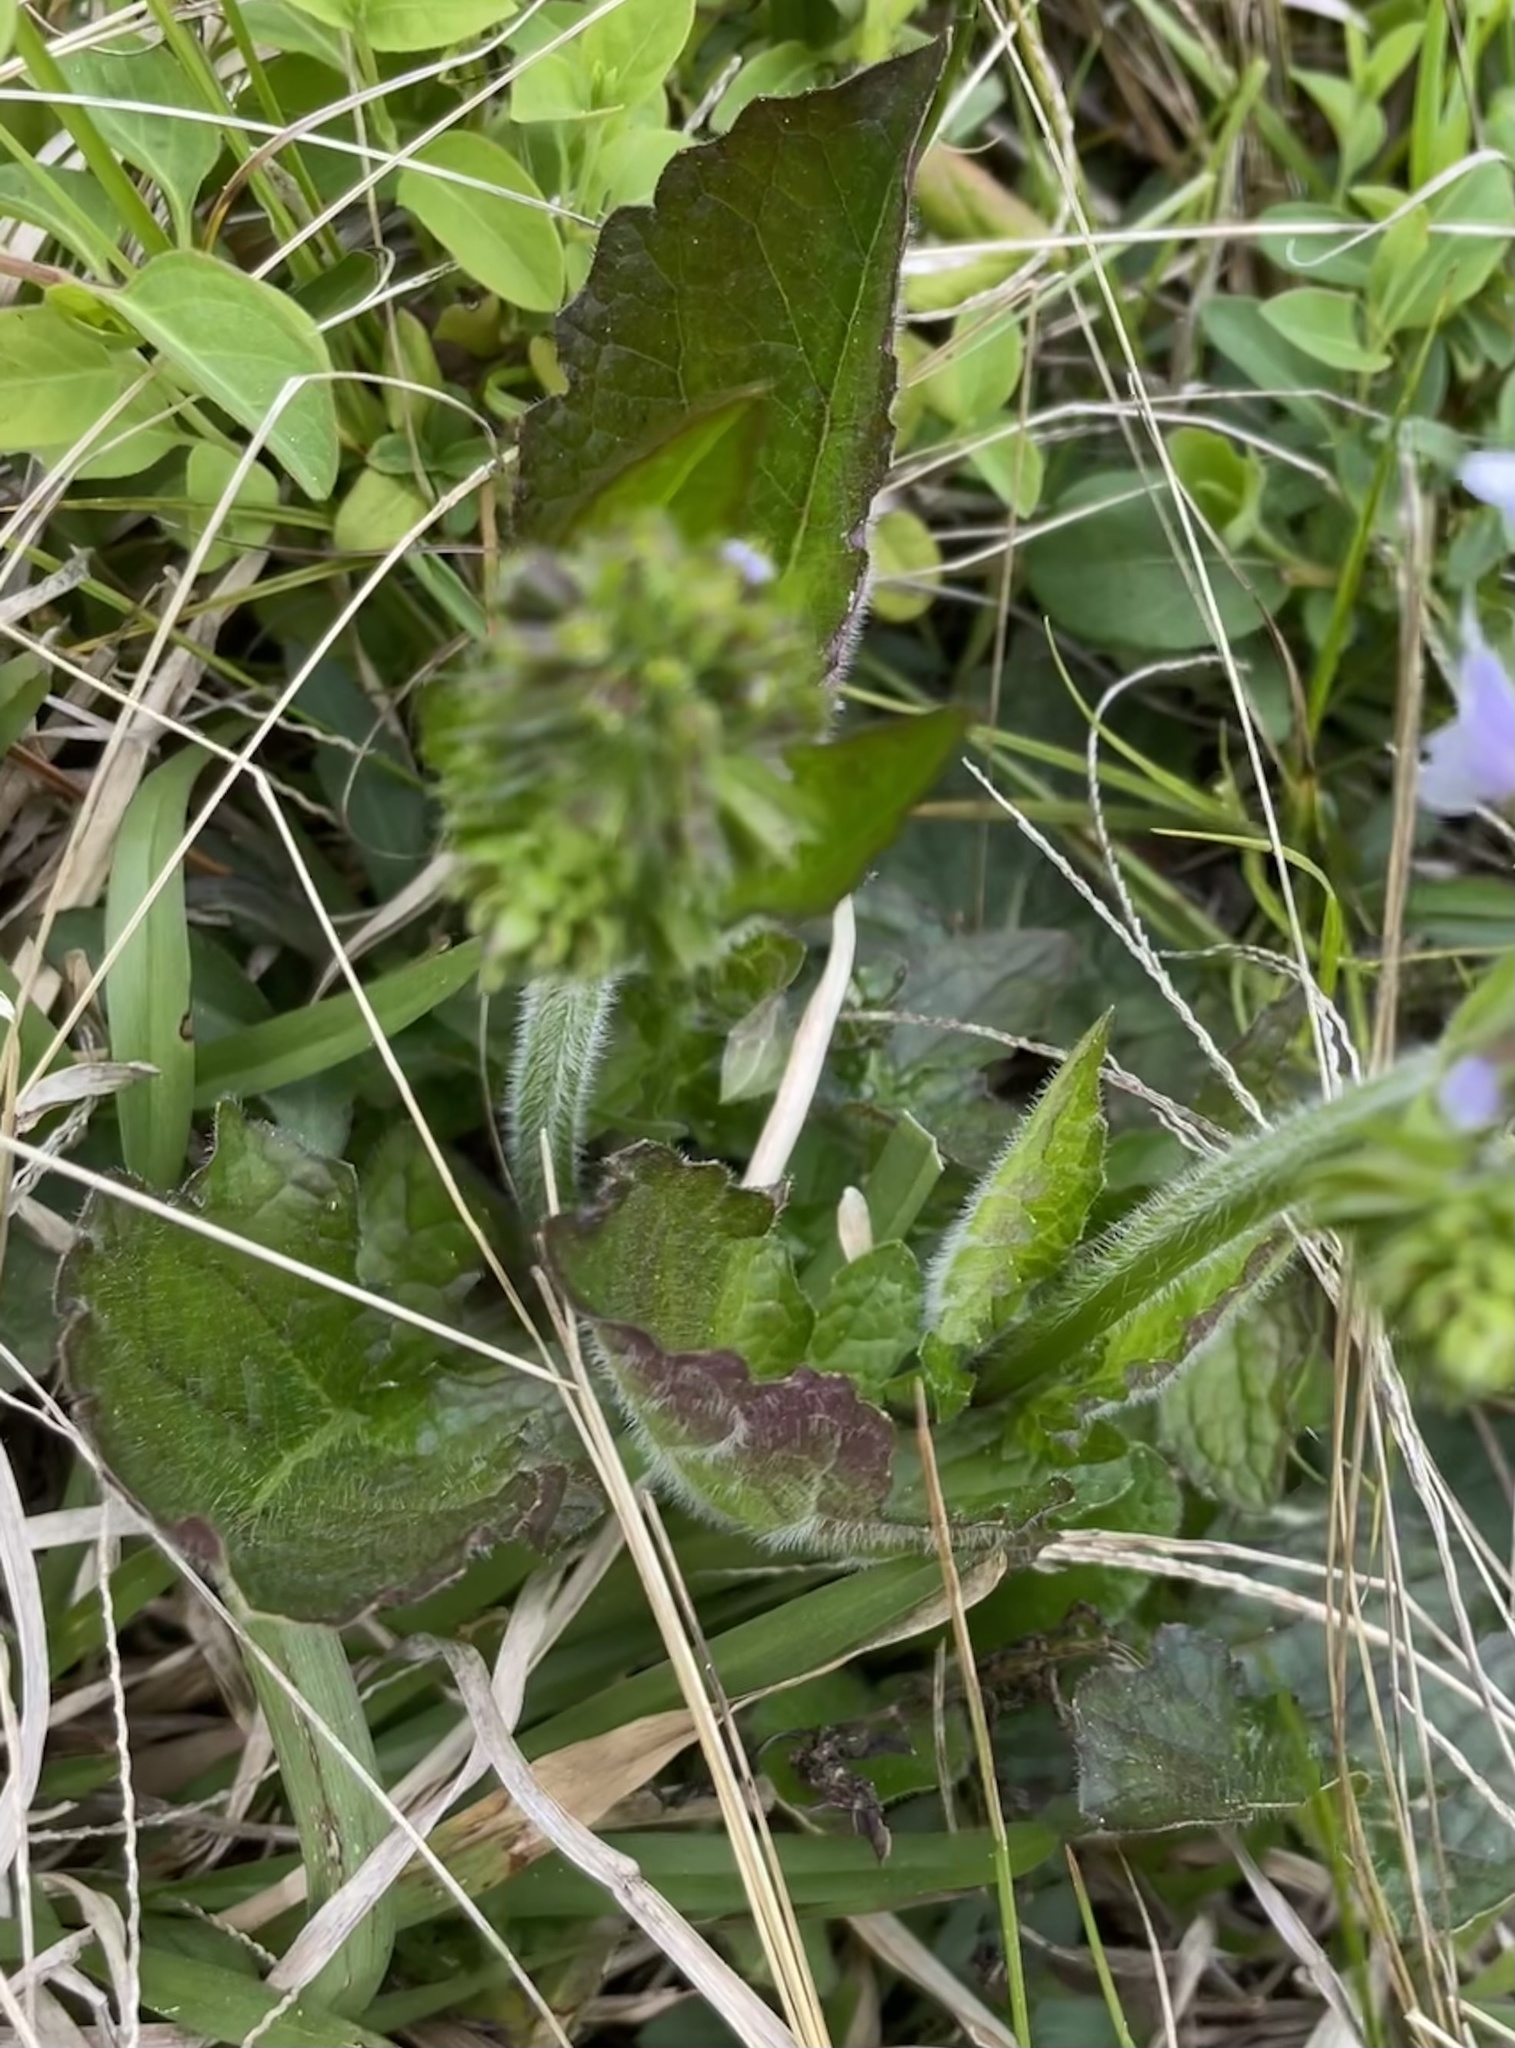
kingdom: Plantae
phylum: Tracheophyta
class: Magnoliopsida
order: Lamiales
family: Lamiaceae
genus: Salvia
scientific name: Salvia lyrata
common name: Cancerweed
